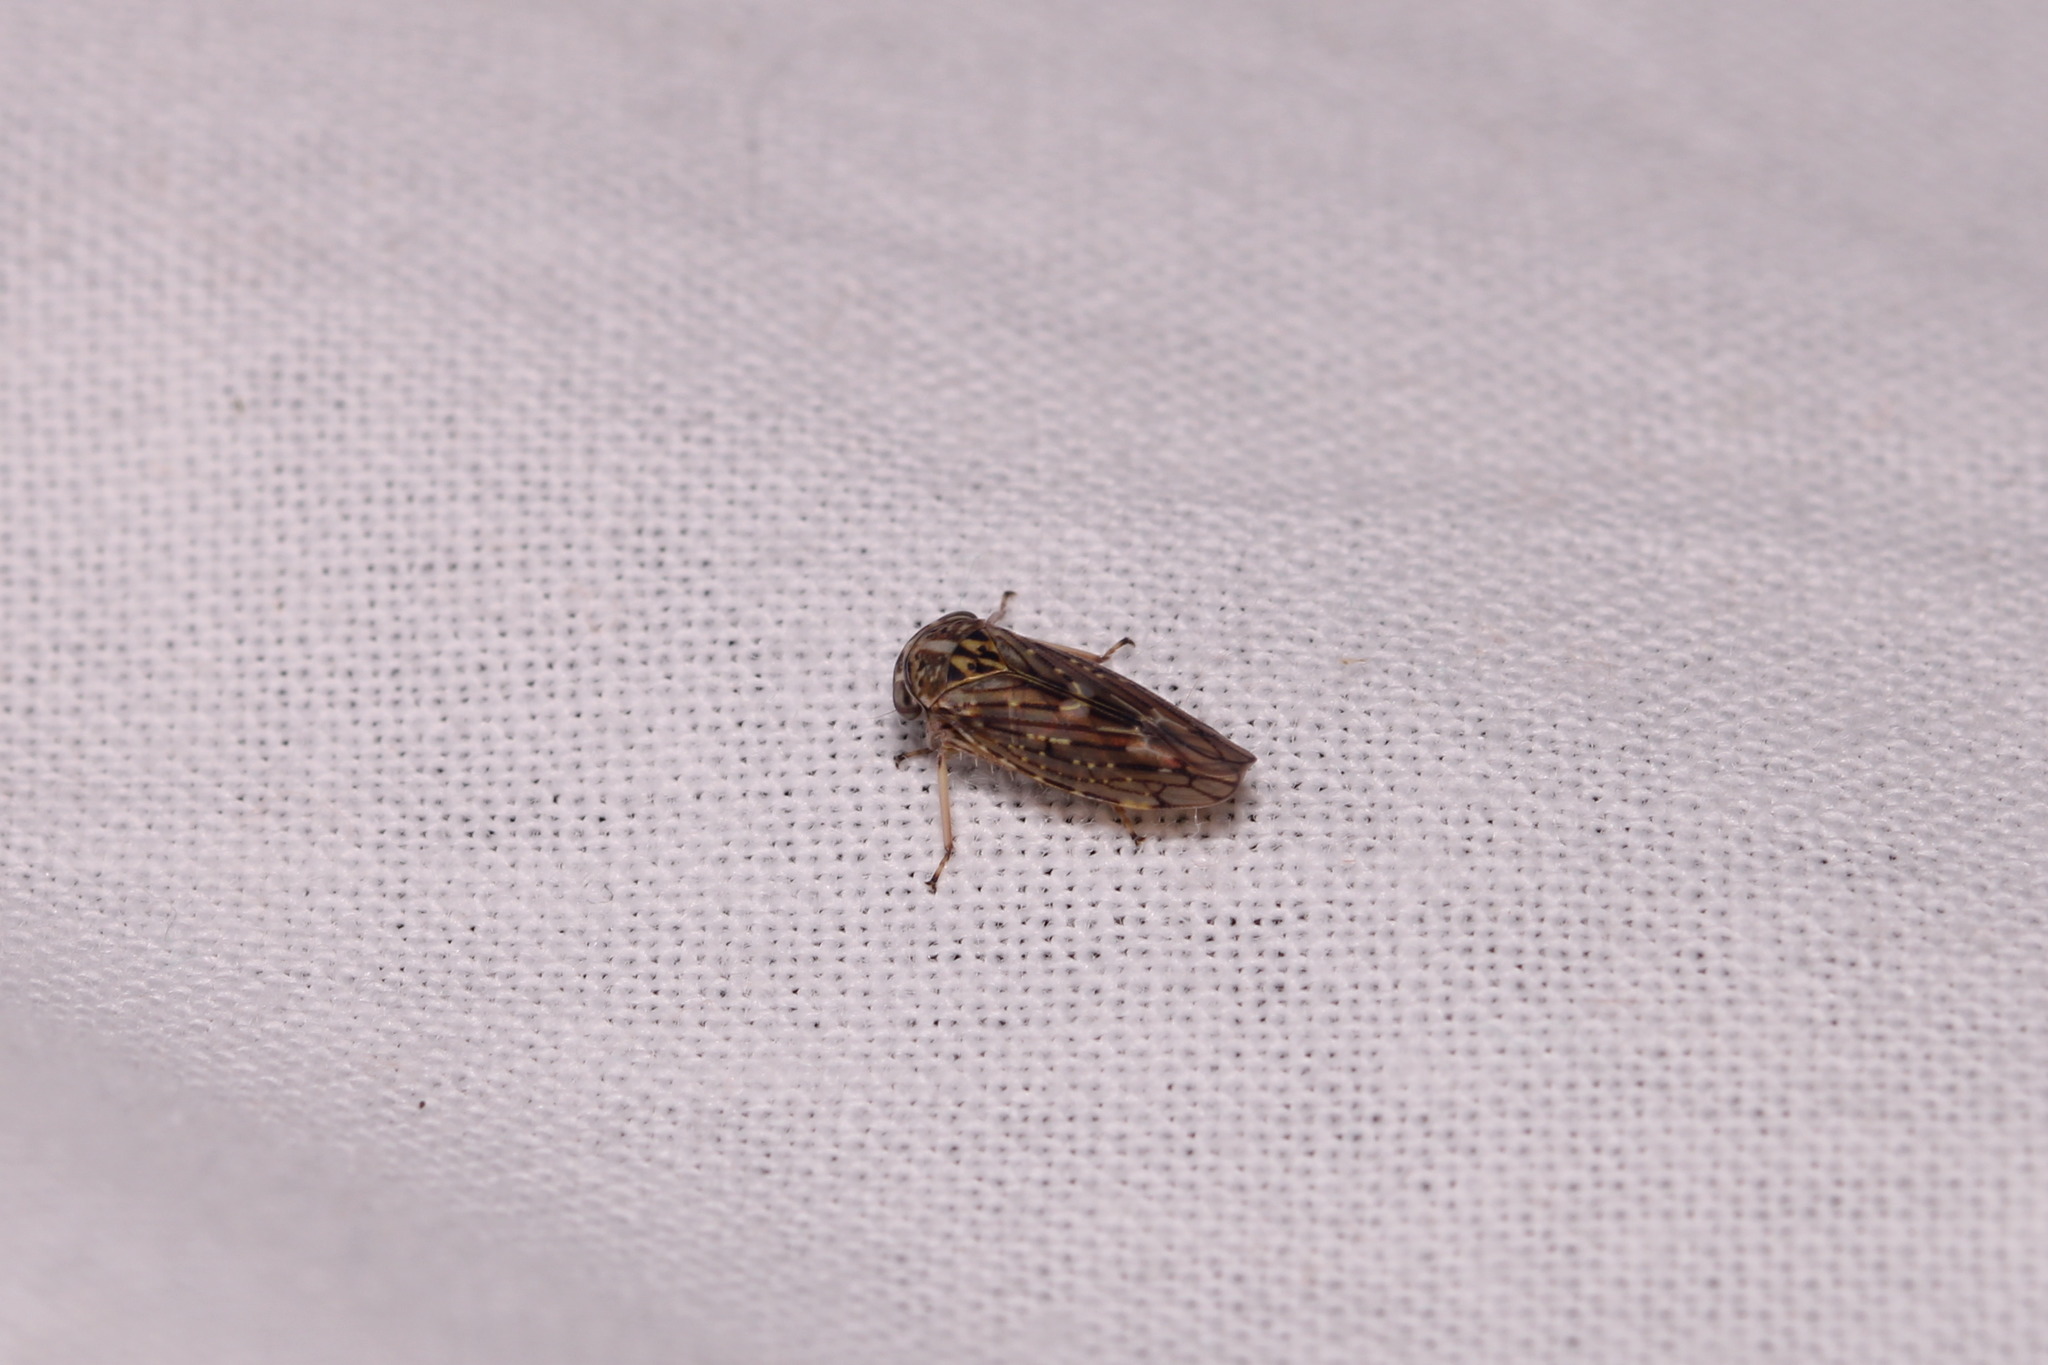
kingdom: Animalia
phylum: Arthropoda
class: Insecta
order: Hemiptera
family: Cicadellidae
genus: Idiocerus
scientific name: Idiocerus herrichii
